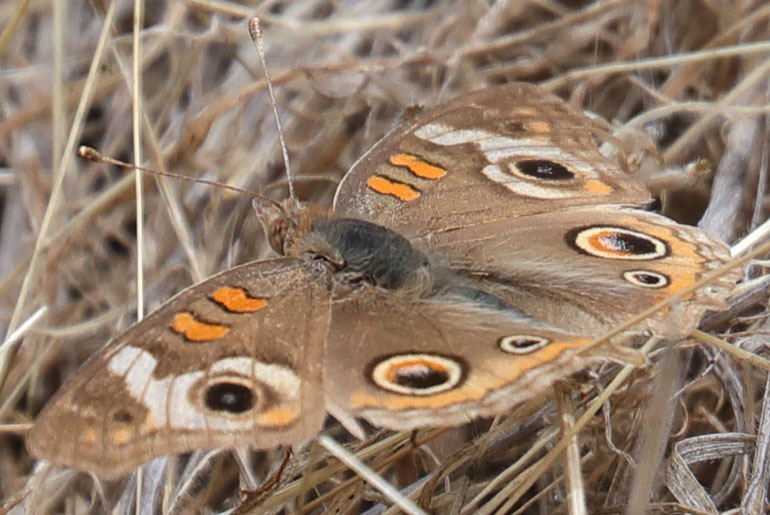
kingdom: Animalia
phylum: Arthropoda
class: Insecta
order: Lepidoptera
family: Nymphalidae
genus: Junonia
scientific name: Junonia grisea
